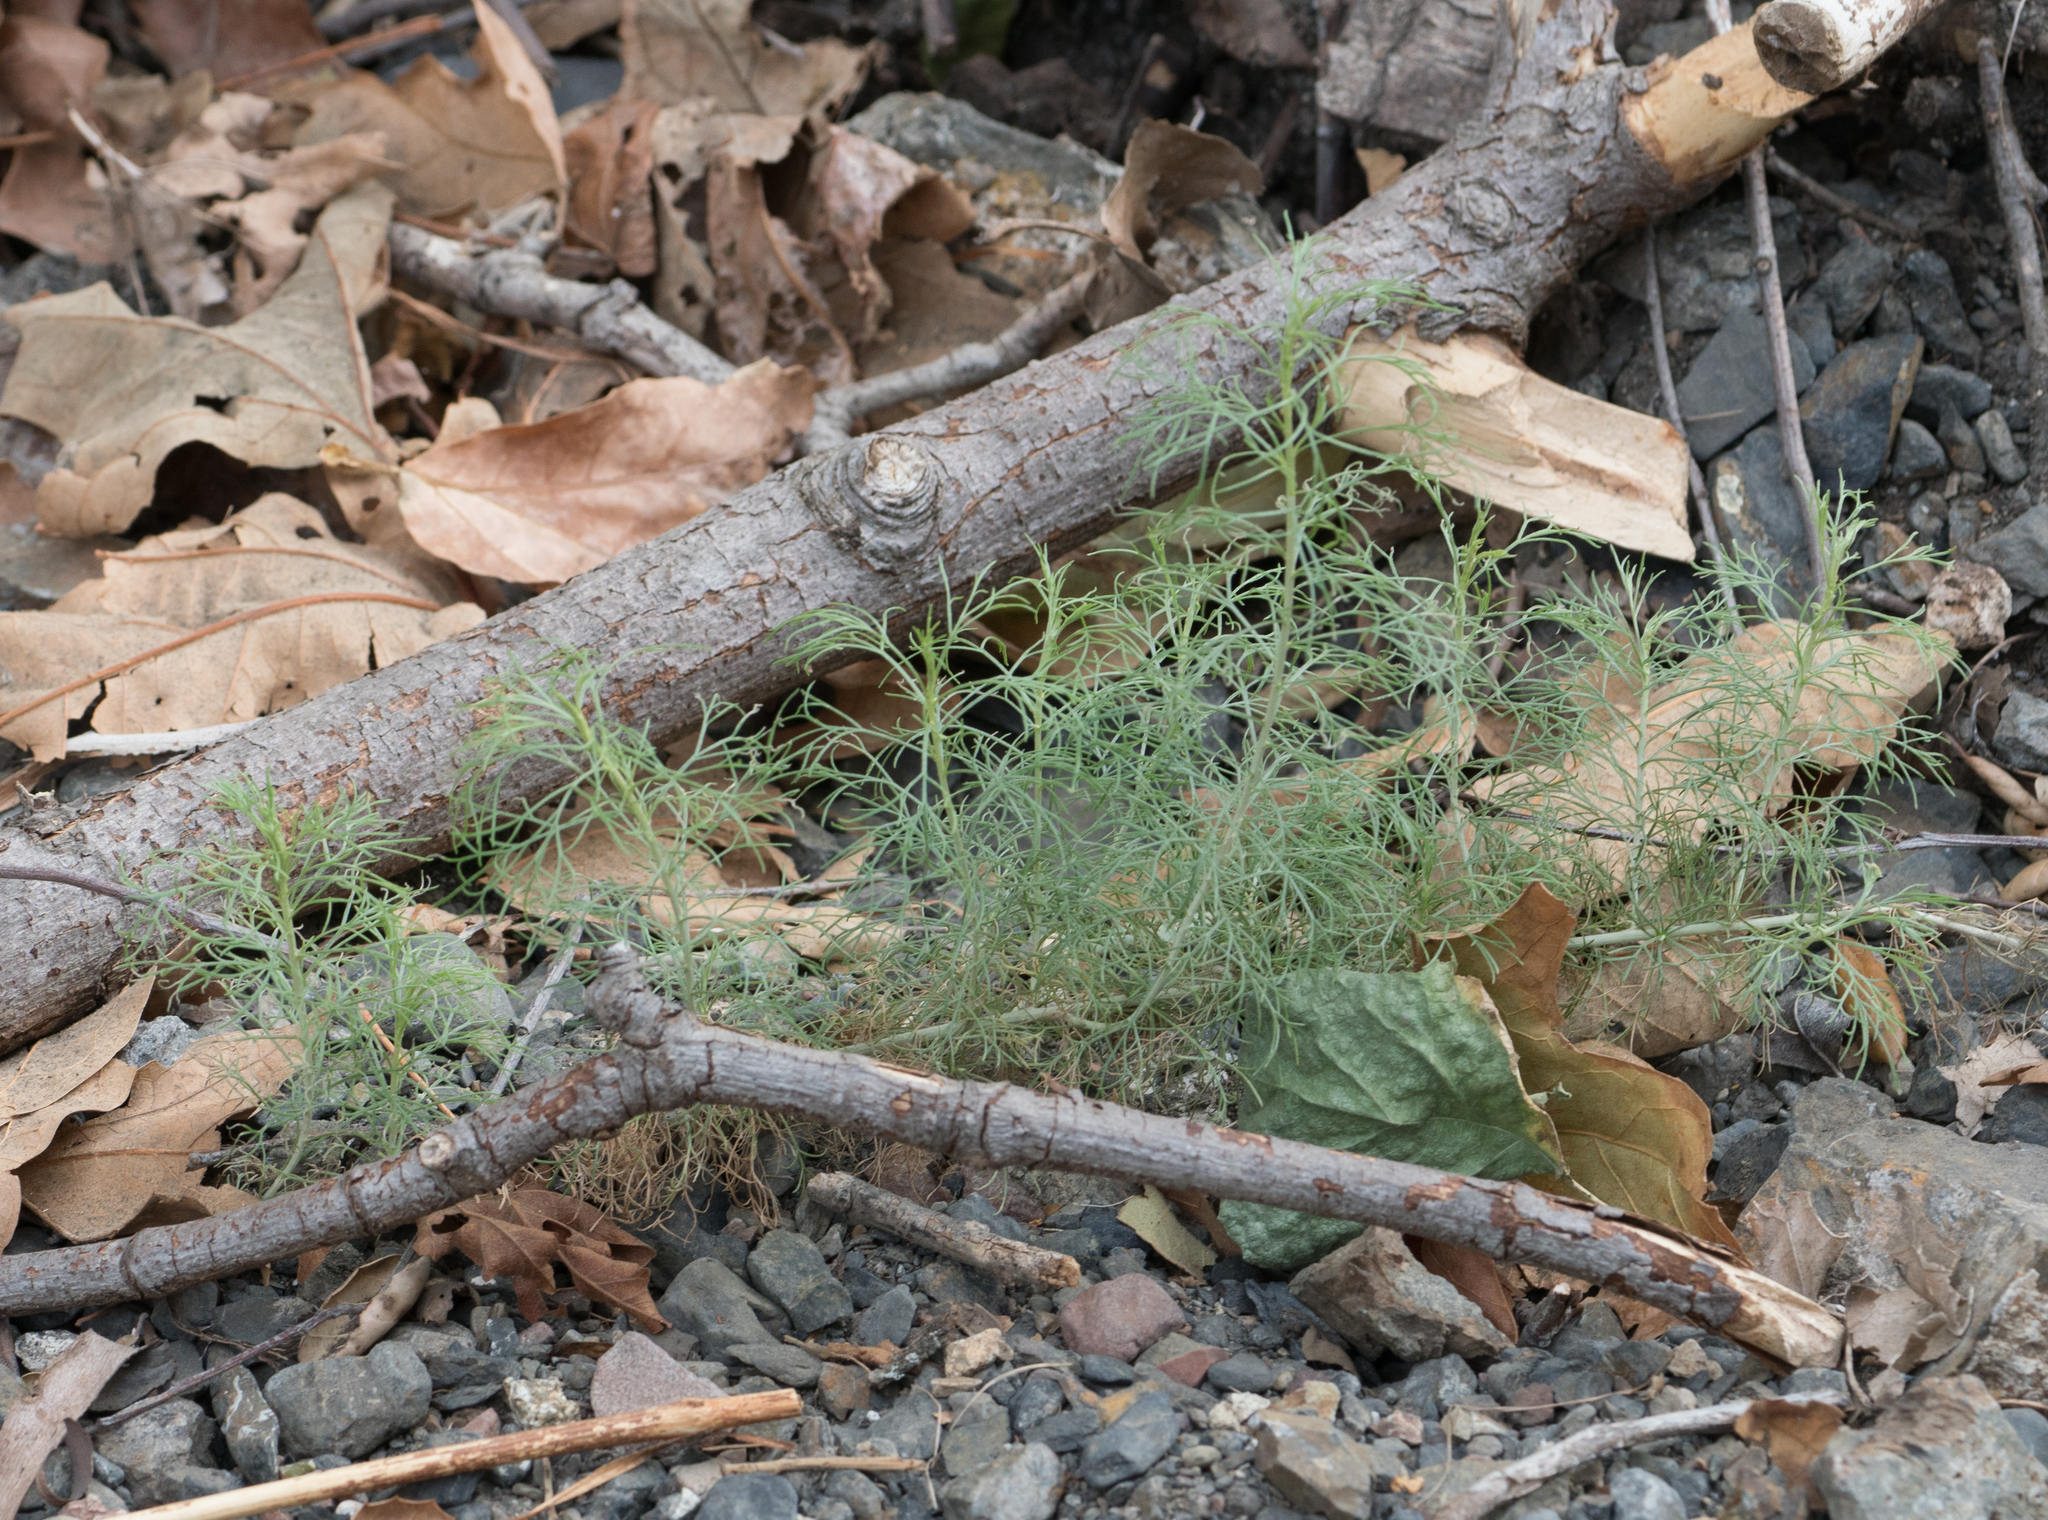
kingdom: Plantae
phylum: Tracheophyta
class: Magnoliopsida
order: Asterales
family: Asteraceae
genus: Artemisia
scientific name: Artemisia californica
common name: California sagebrush
